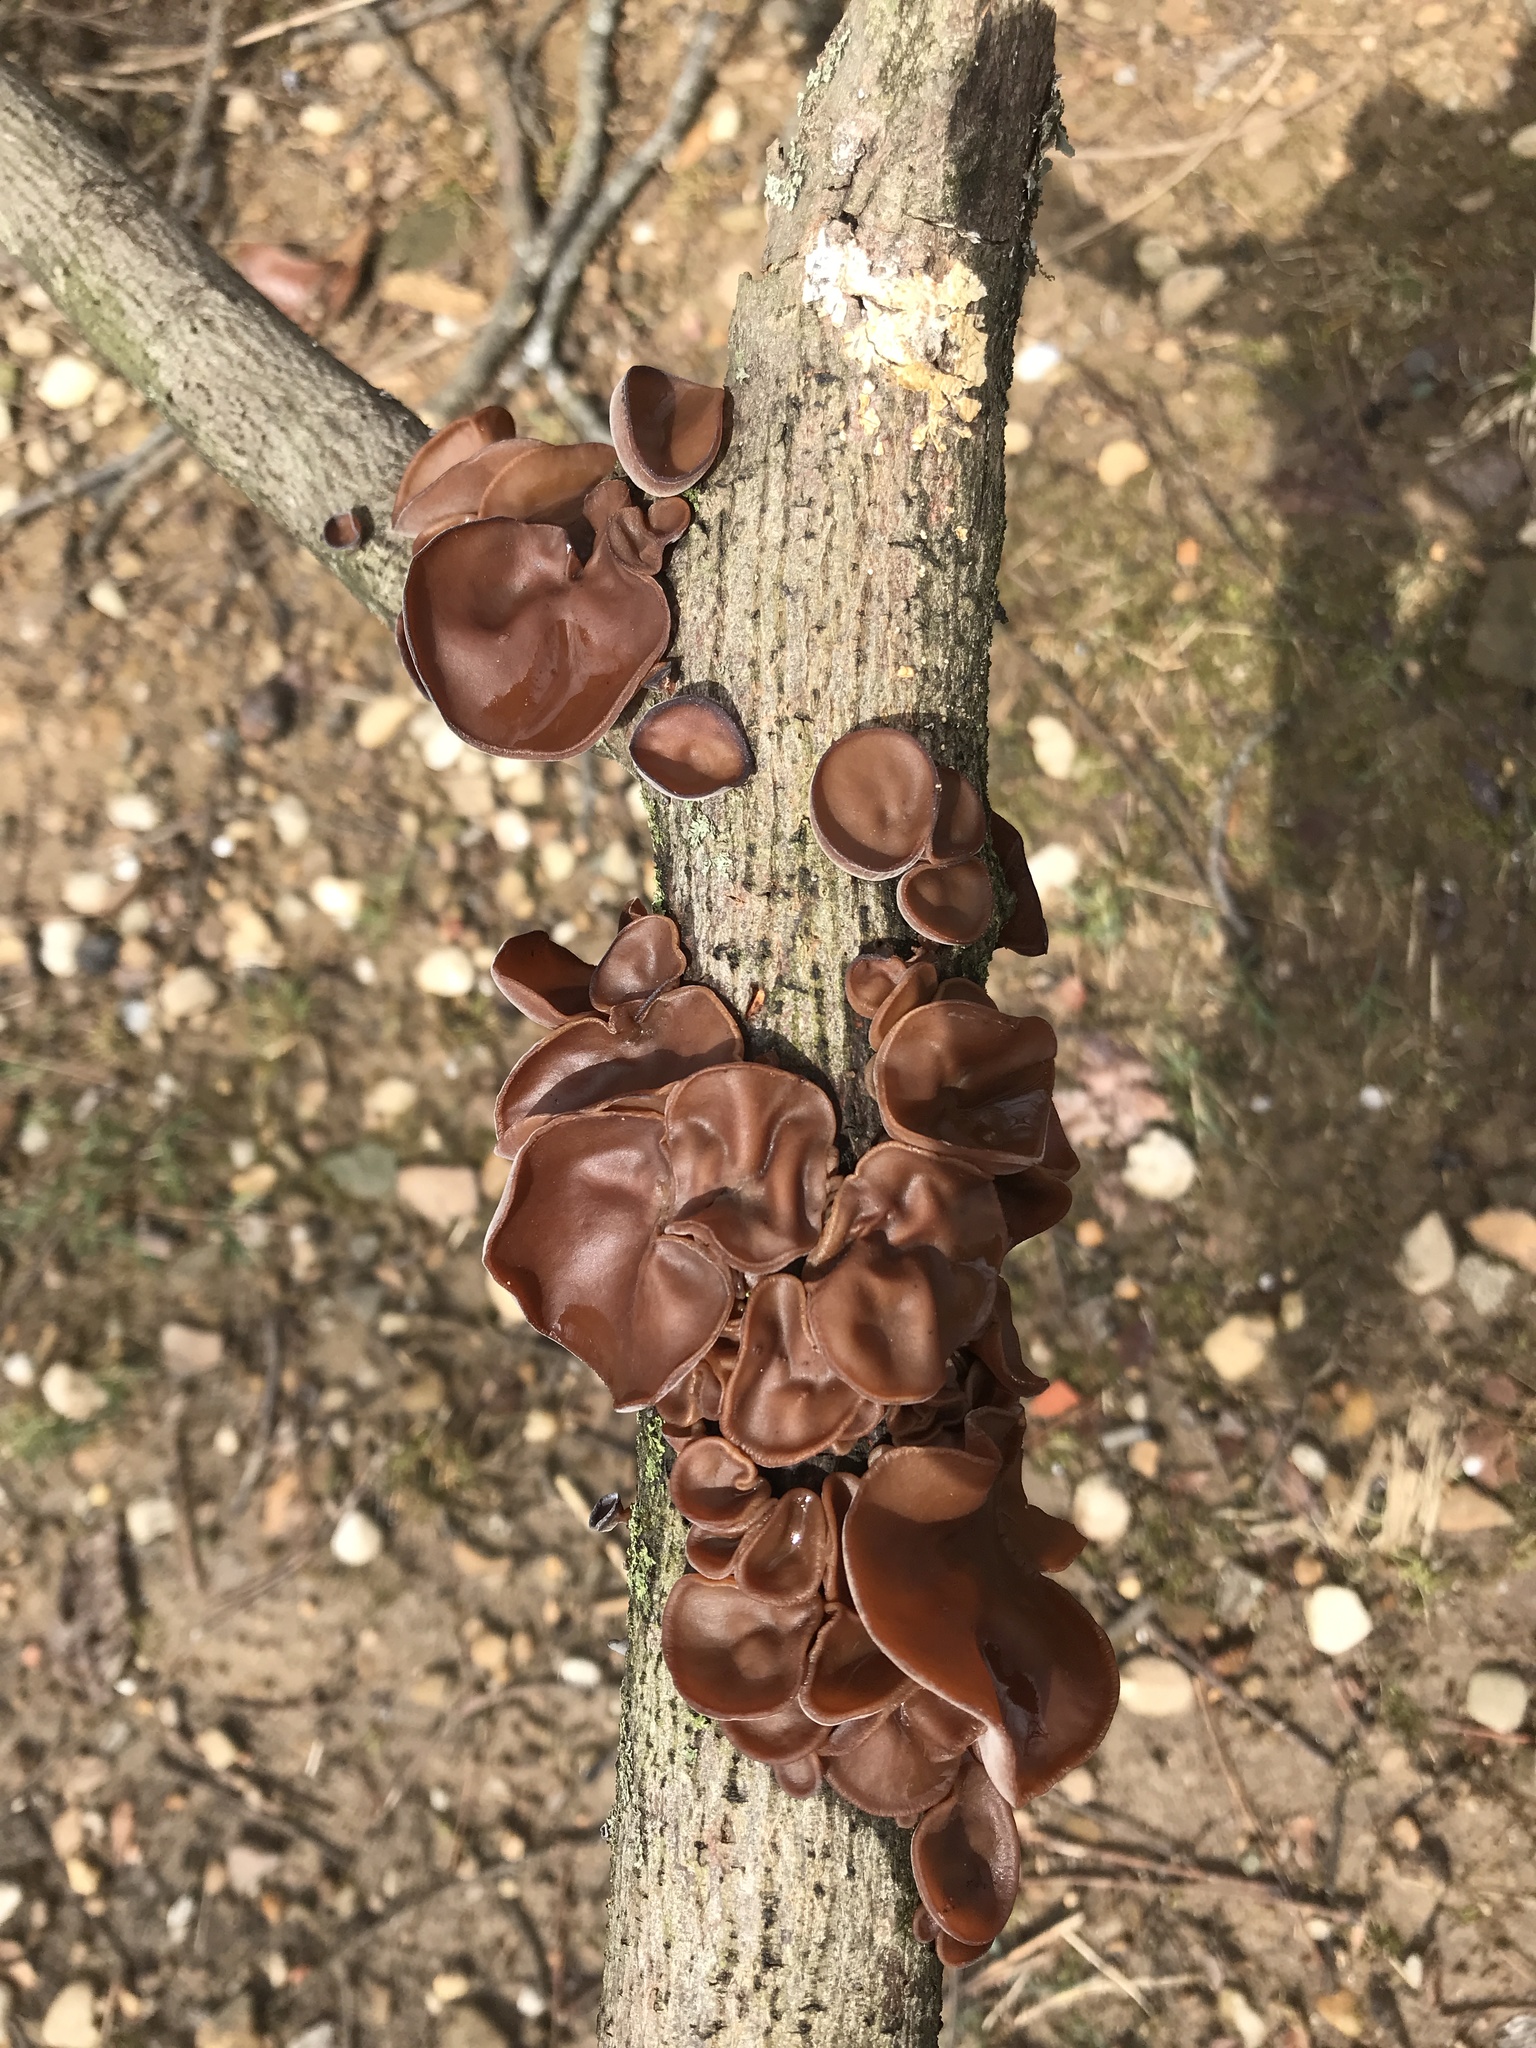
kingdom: Fungi
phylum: Basidiomycota
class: Agaricomycetes
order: Auriculariales
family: Auriculariaceae
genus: Auricularia
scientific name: Auricularia angiospermarum
